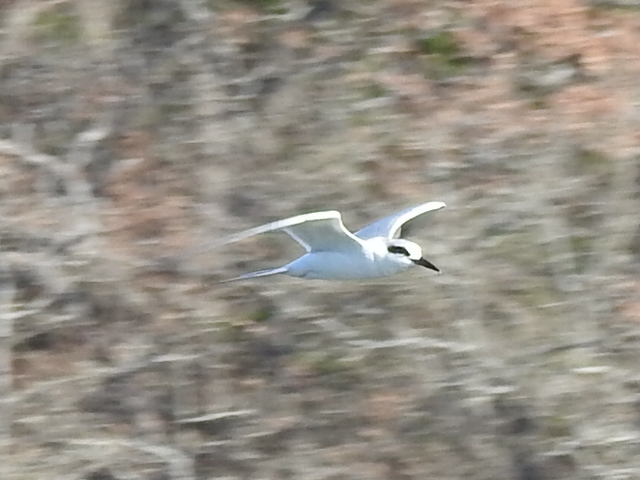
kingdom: Animalia
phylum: Chordata
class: Aves
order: Charadriiformes
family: Laridae
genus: Sterna
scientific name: Sterna forsteri
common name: Forster's tern
